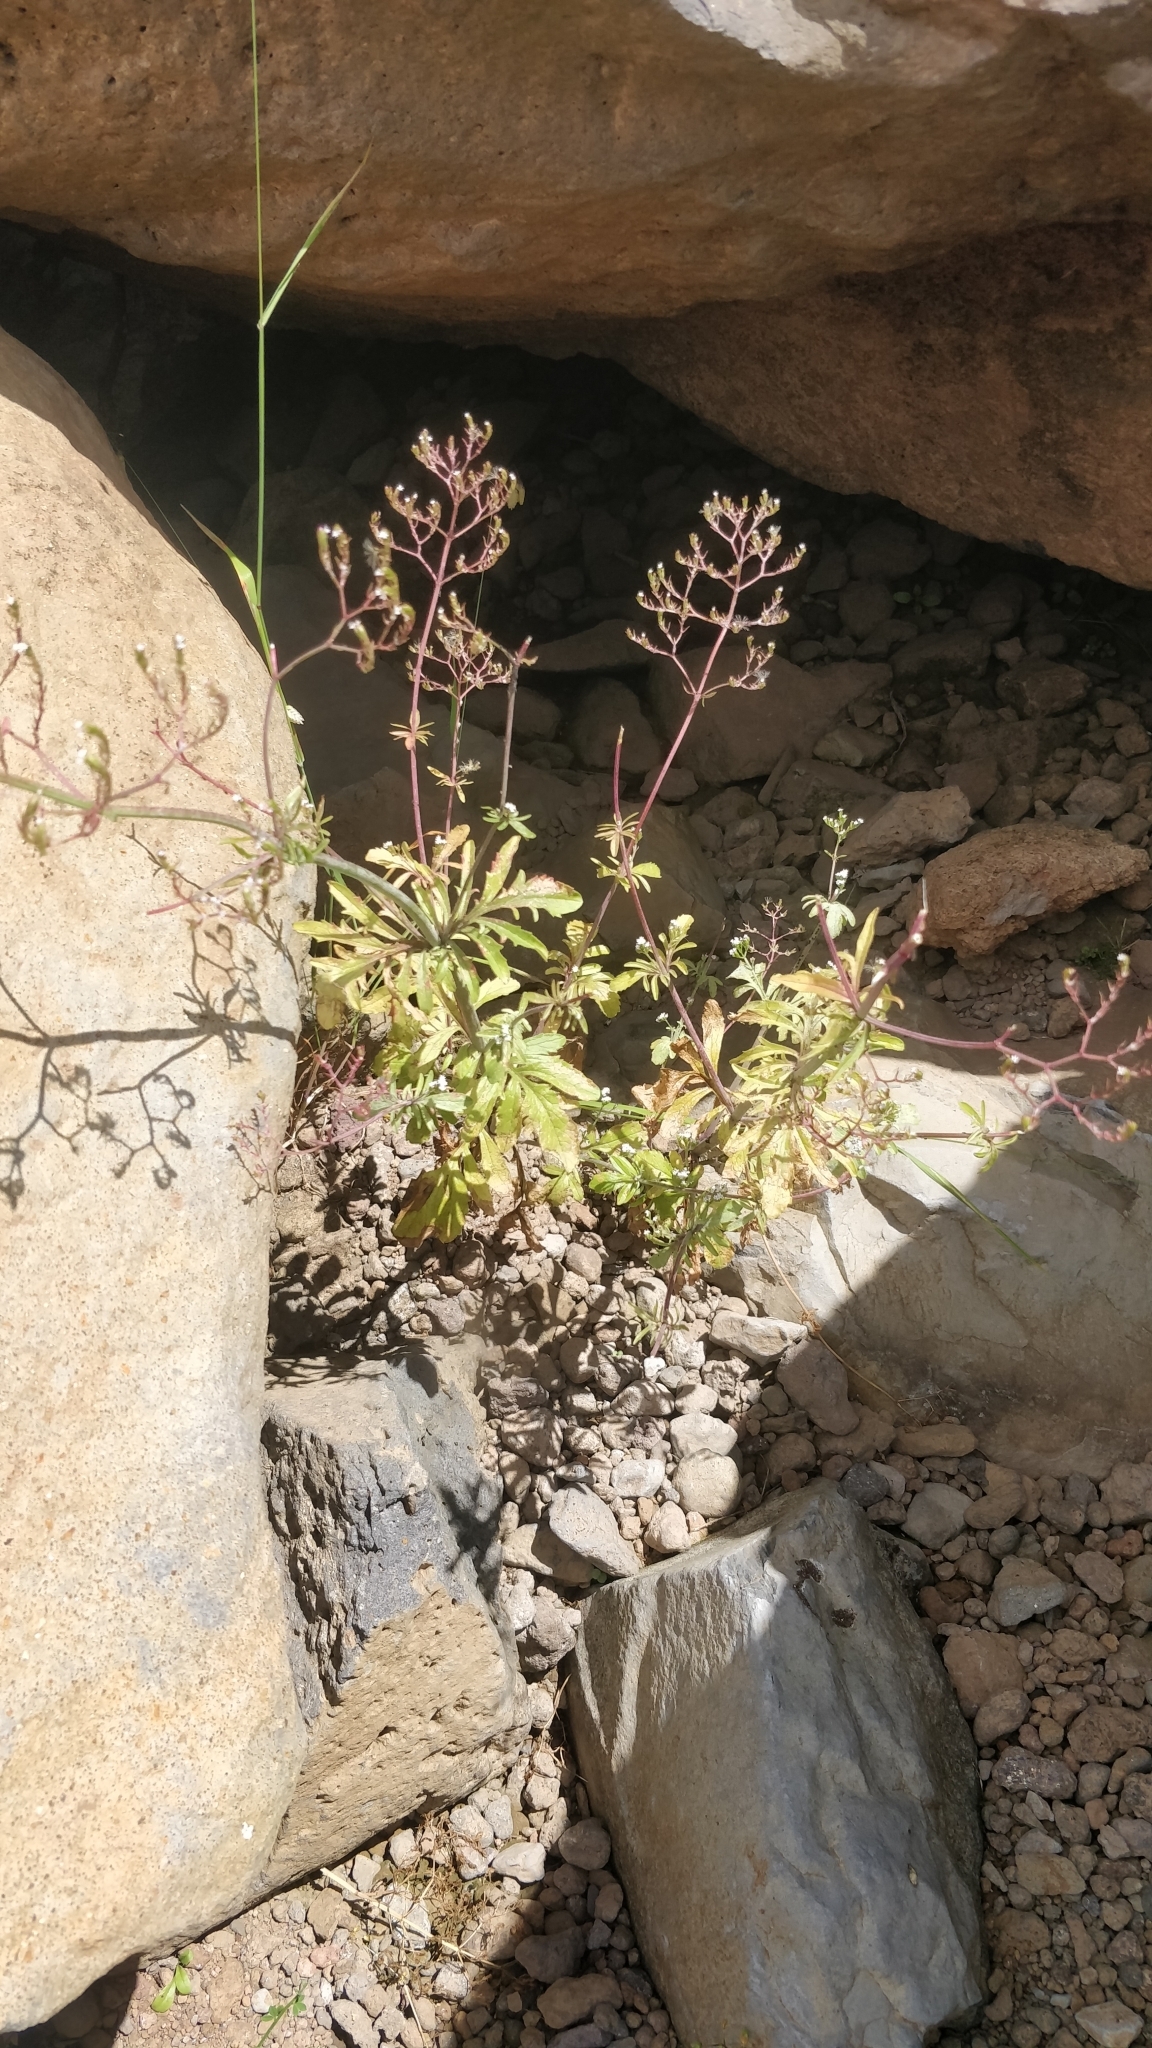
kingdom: Plantae
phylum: Tracheophyta
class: Magnoliopsida
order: Dipsacales
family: Caprifoliaceae
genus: Centranthus
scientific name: Centranthus calcitrapae
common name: Annual valerian
